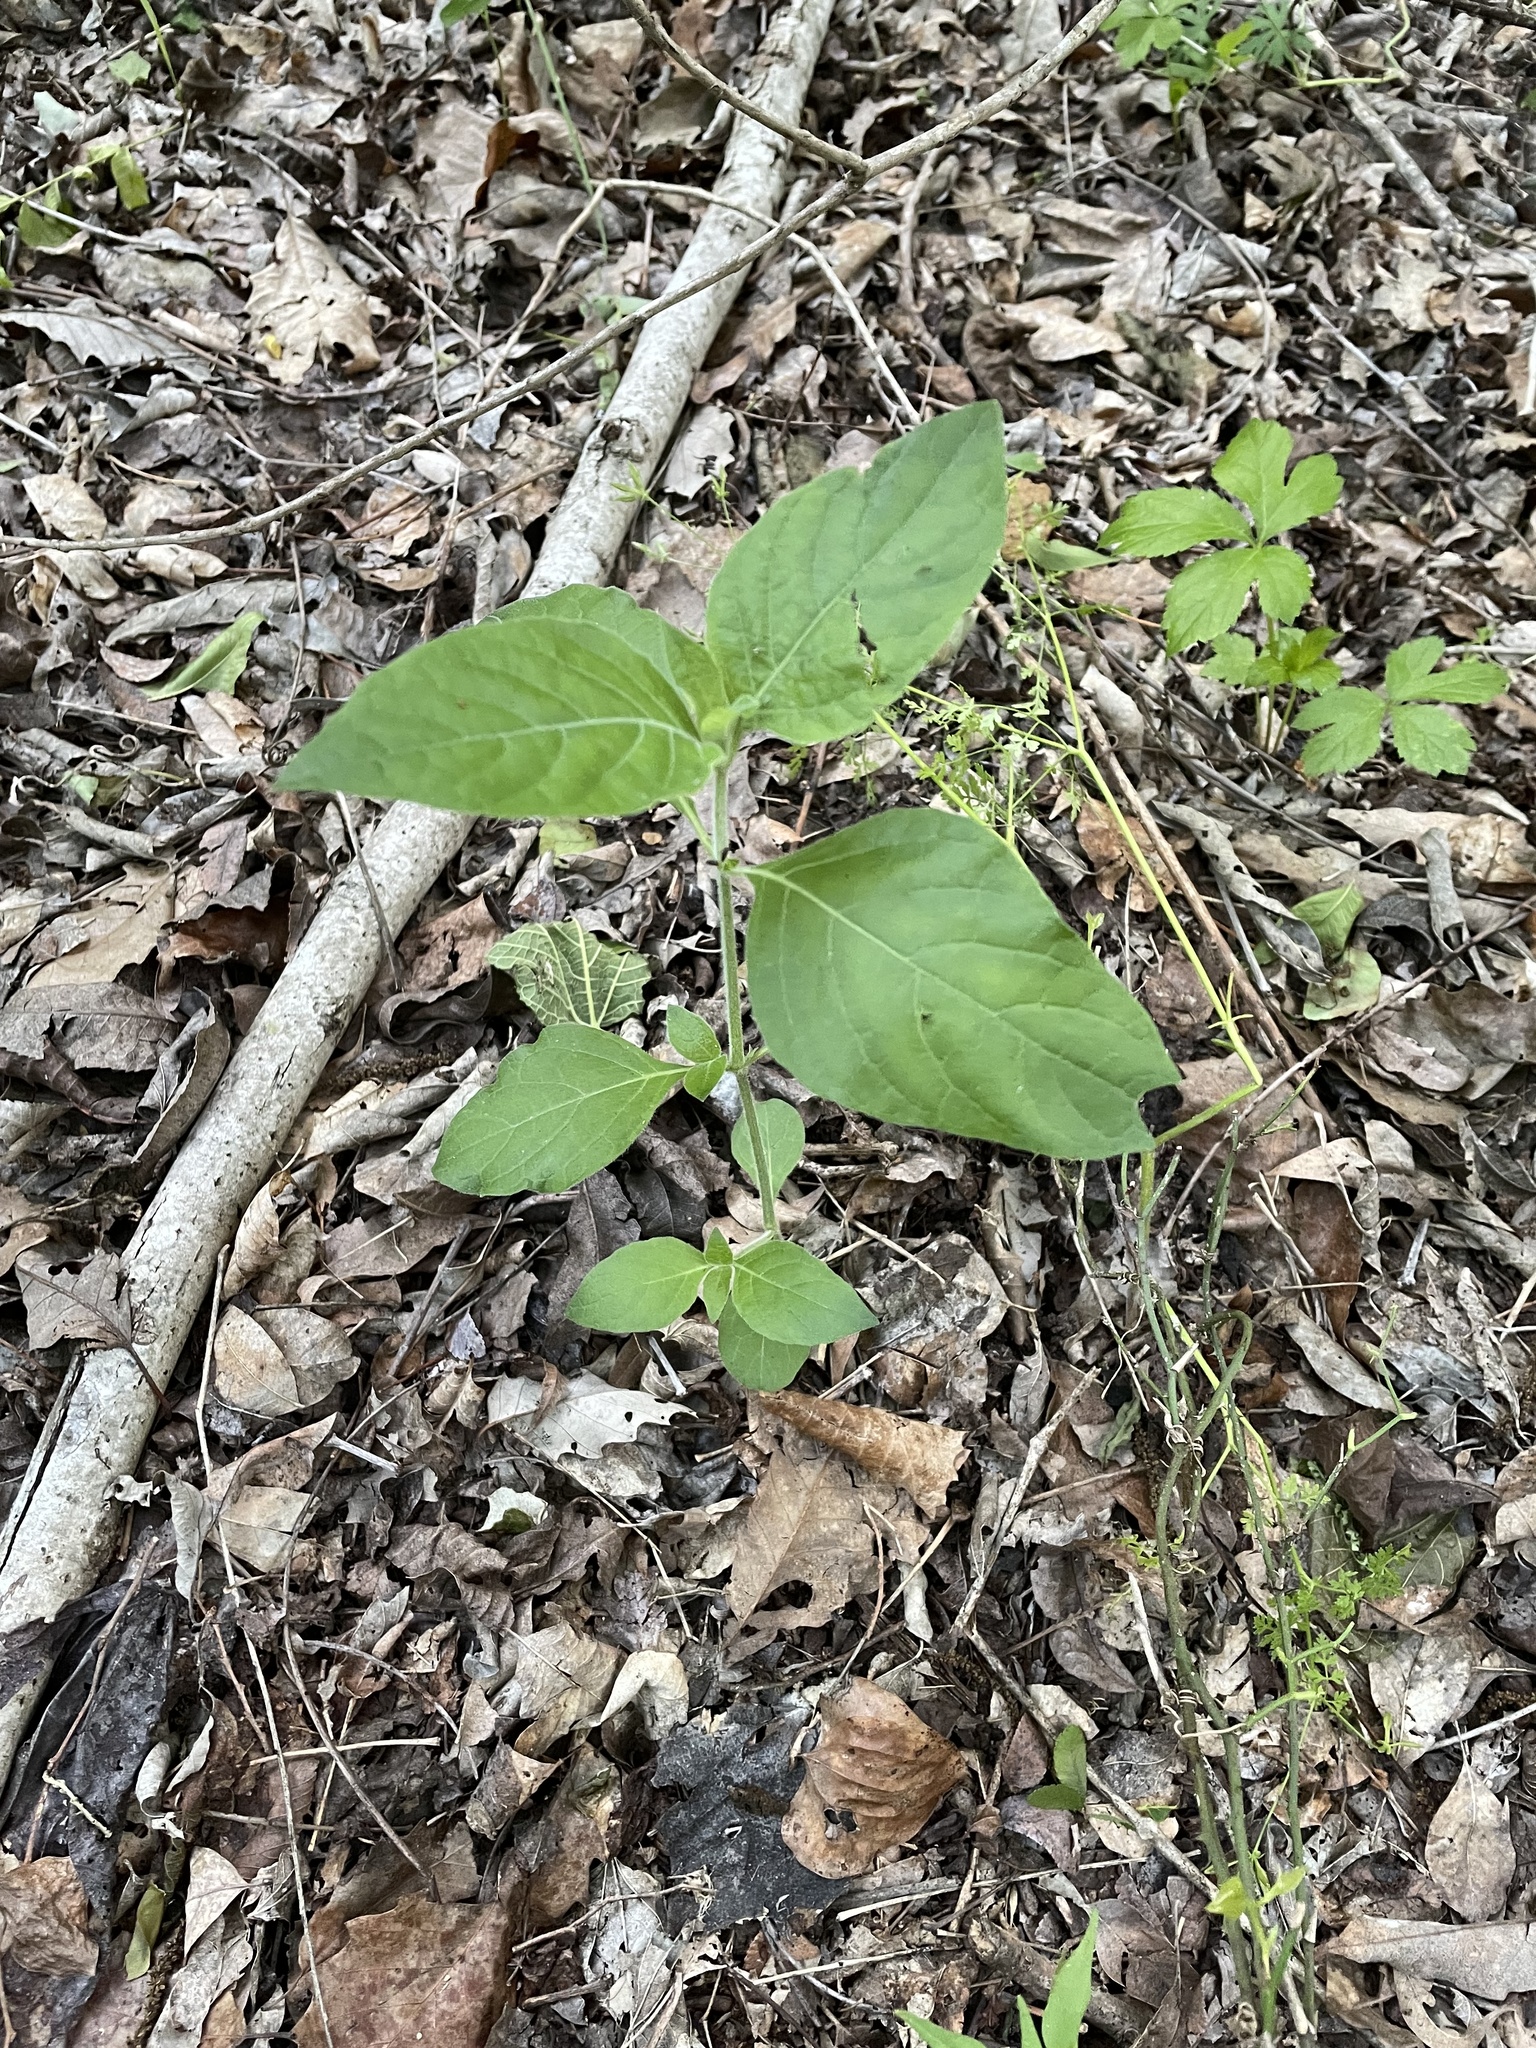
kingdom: Plantae
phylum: Tracheophyta
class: Magnoliopsida
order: Lamiales
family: Acanthaceae
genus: Ruellia
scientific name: Ruellia drummondiana
